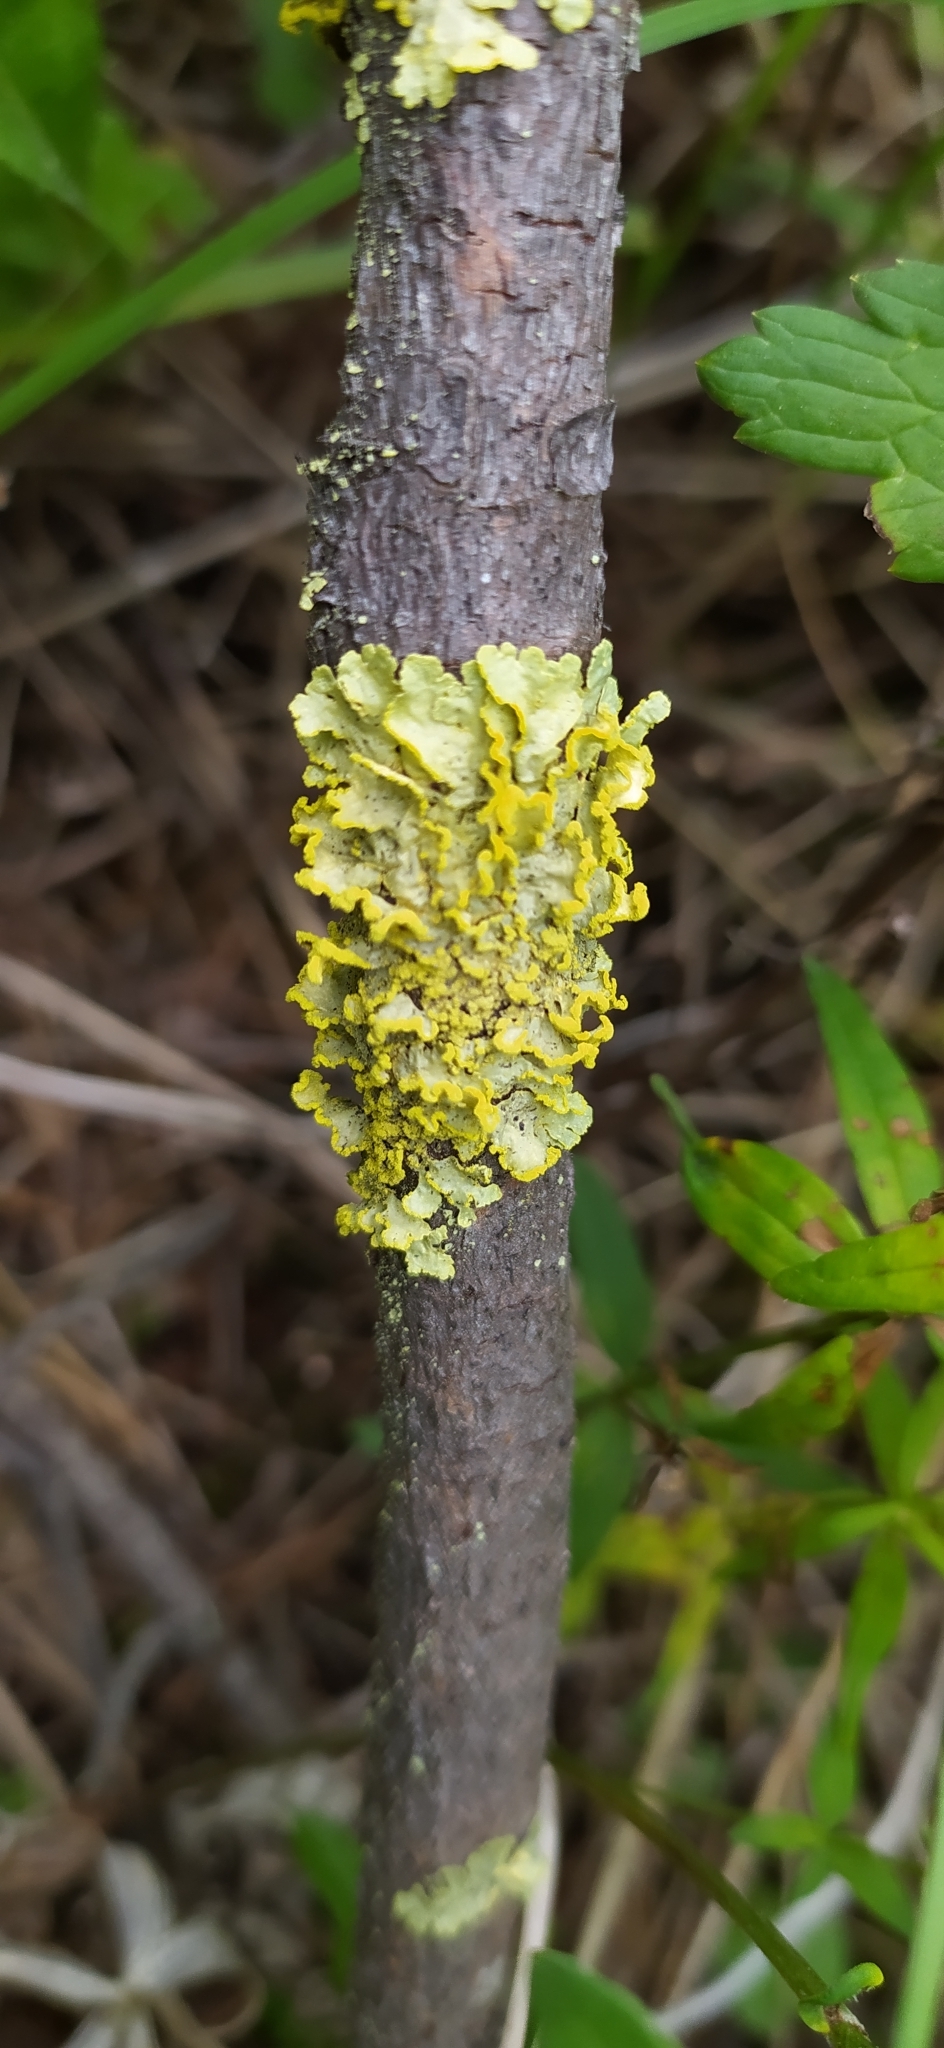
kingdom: Fungi
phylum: Ascomycota
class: Lecanoromycetes
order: Lecanorales
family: Parmeliaceae
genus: Vulpicida
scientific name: Vulpicida pinastri
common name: Powdered sunshine lichen
